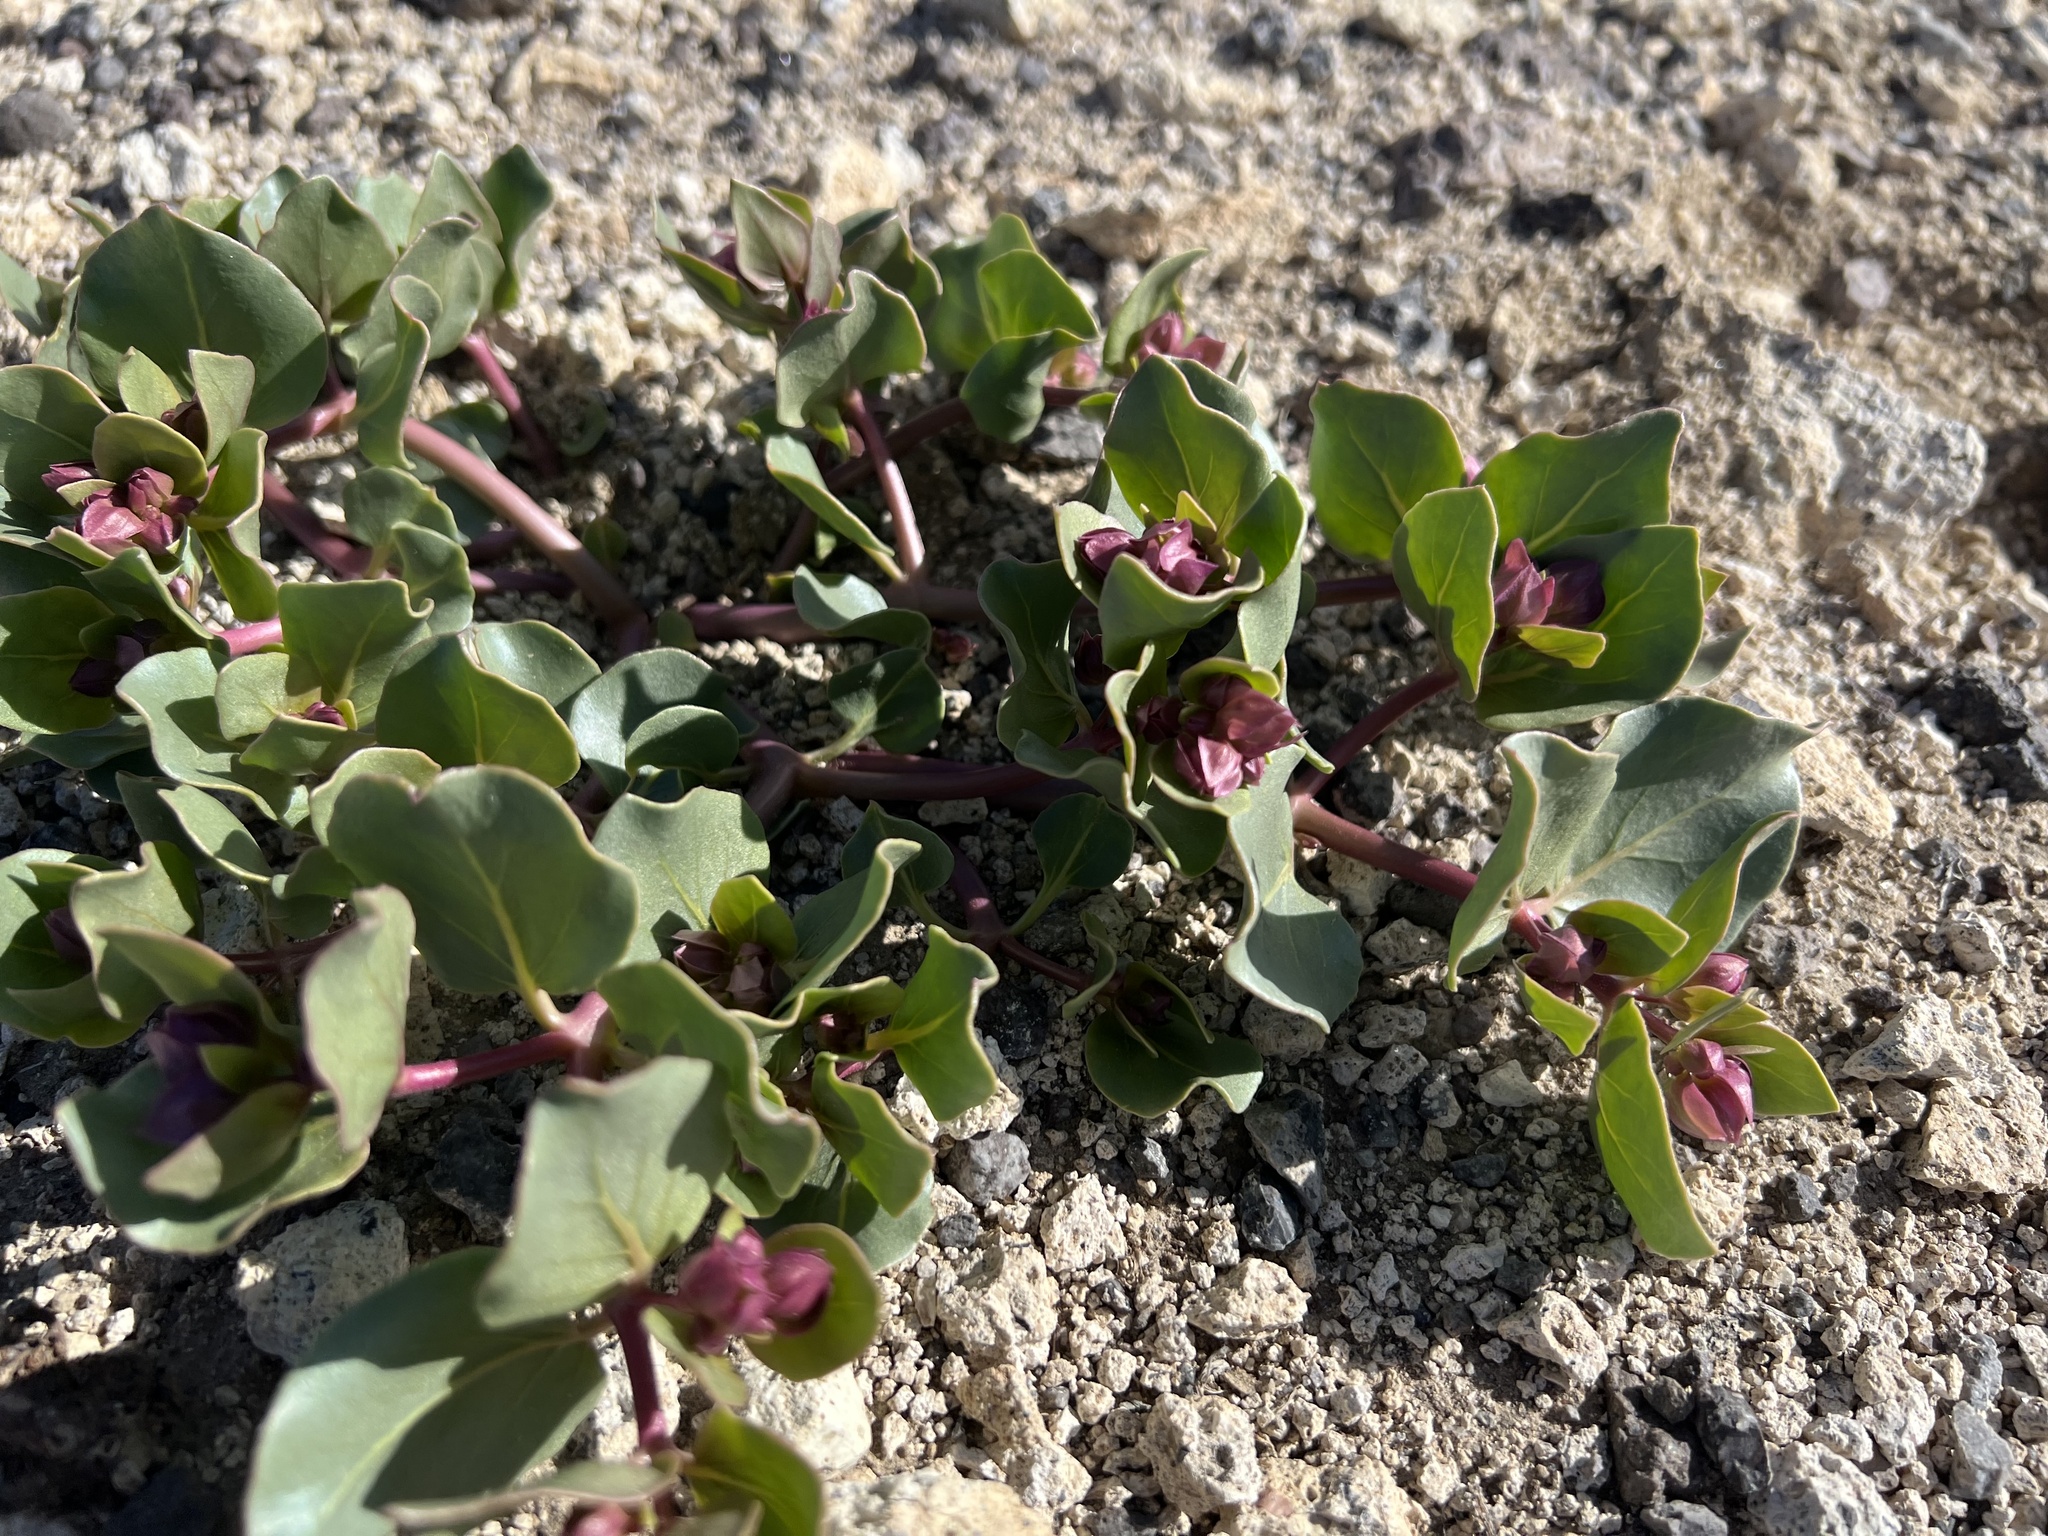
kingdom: Plantae
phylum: Tracheophyta
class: Magnoliopsida
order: Caryophyllales
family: Nyctaginaceae
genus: Mirabilis
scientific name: Mirabilis alipes
